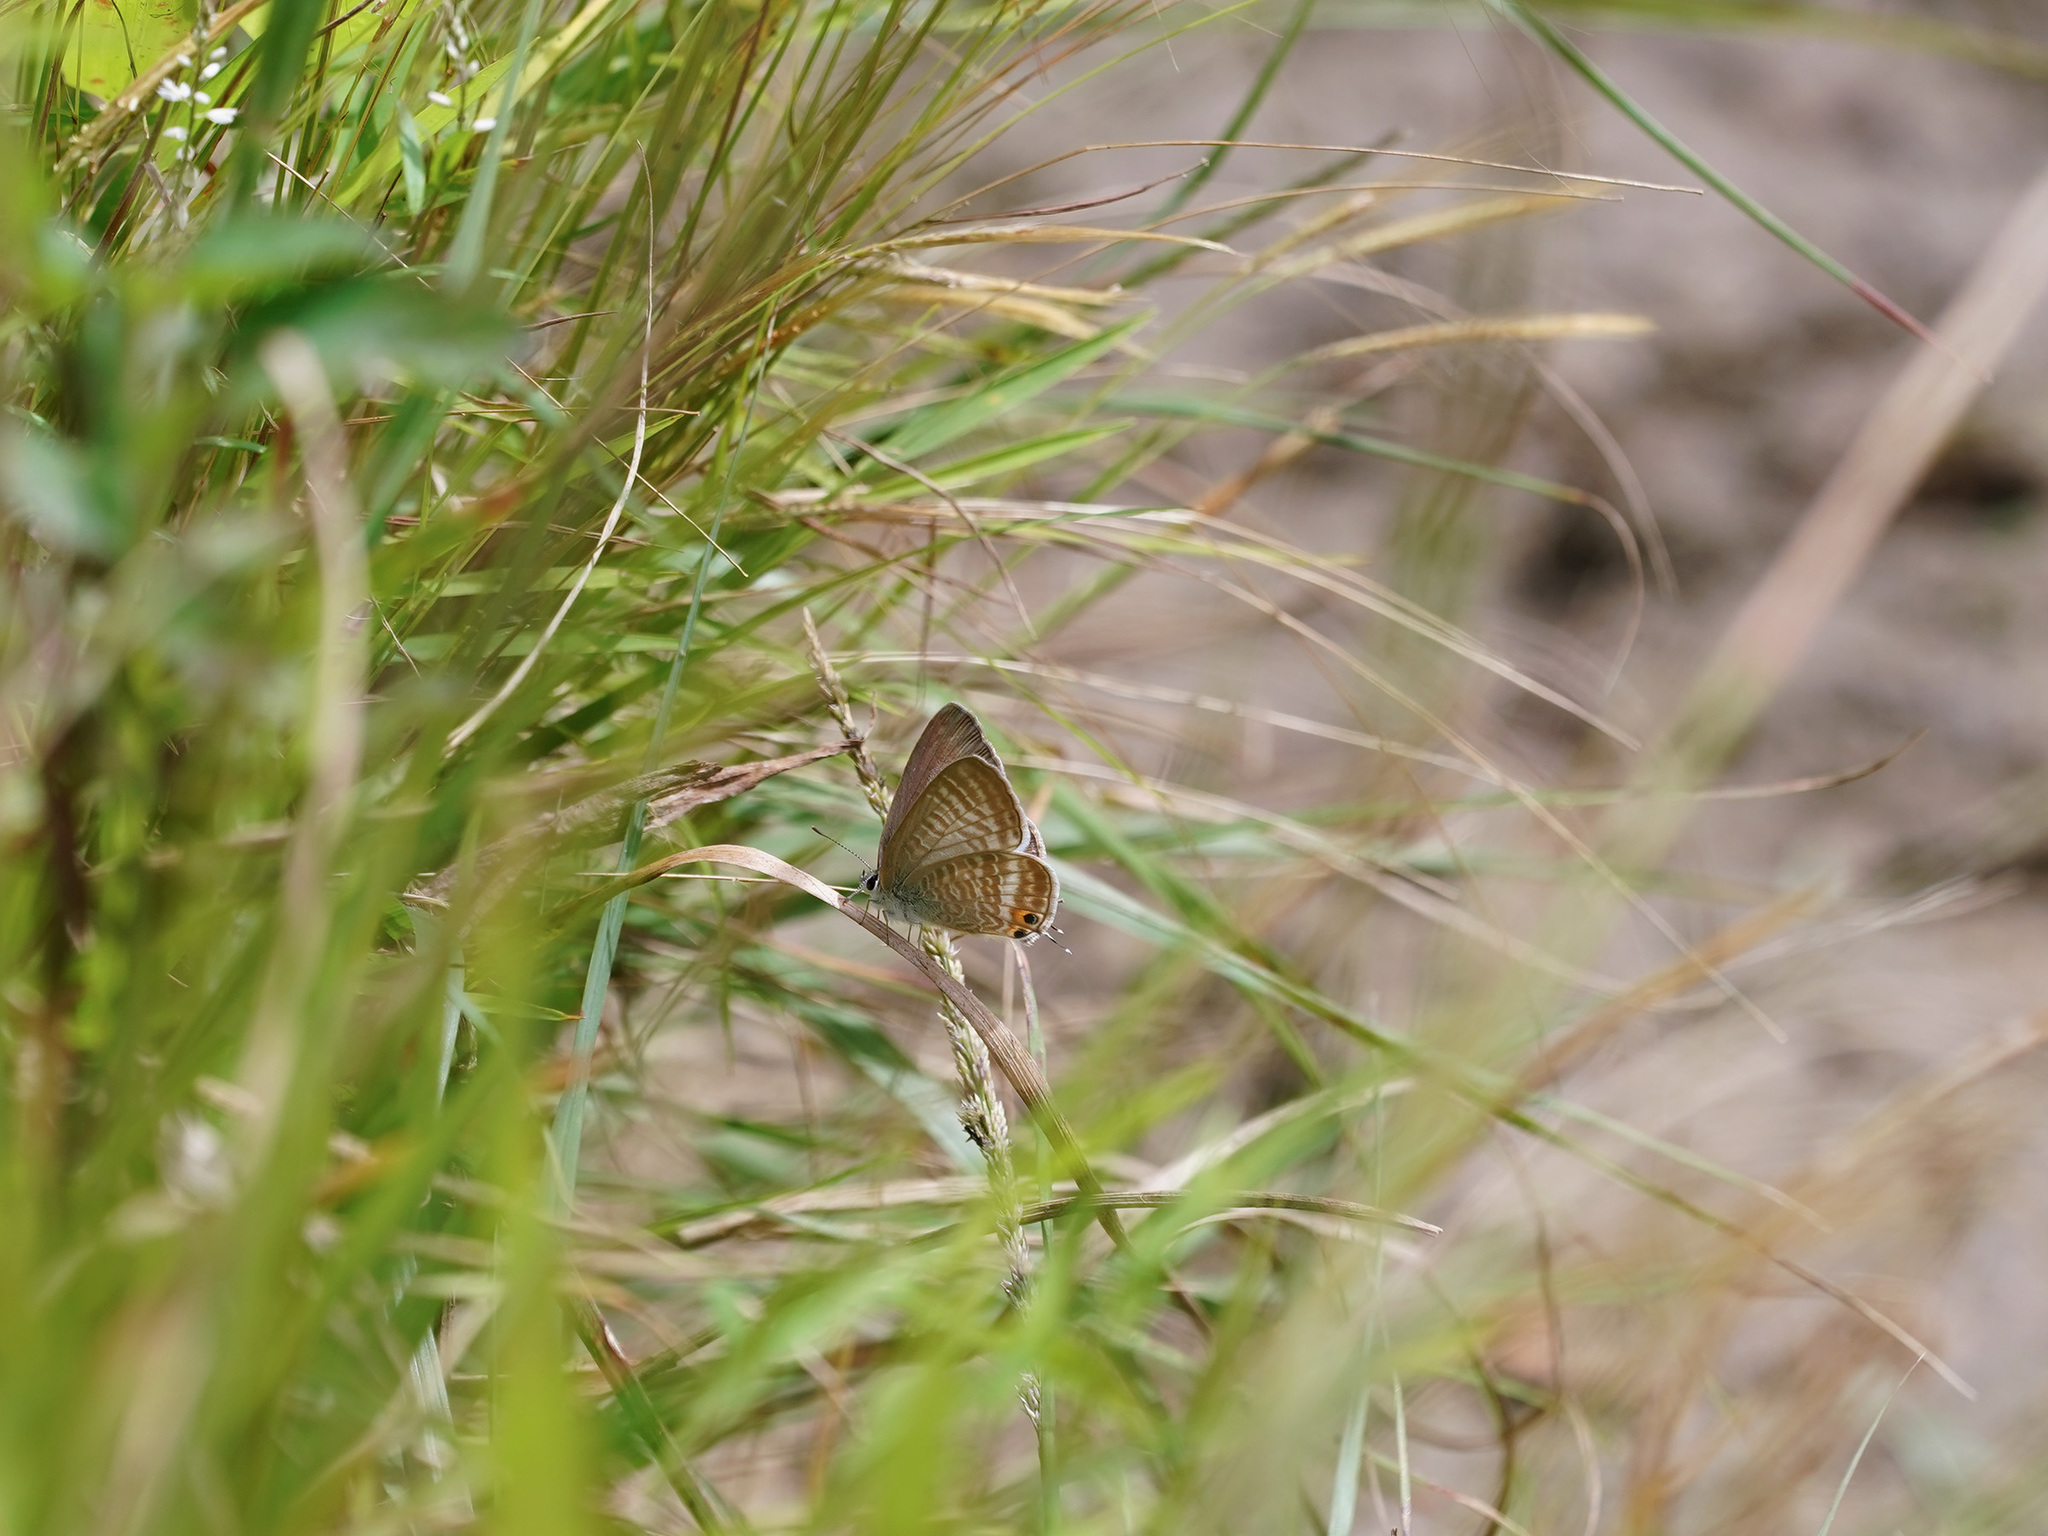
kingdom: Animalia
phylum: Arthropoda
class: Insecta
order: Lepidoptera
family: Lycaenidae
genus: Lampides
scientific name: Lampides boeticus
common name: Long-tailed blue
